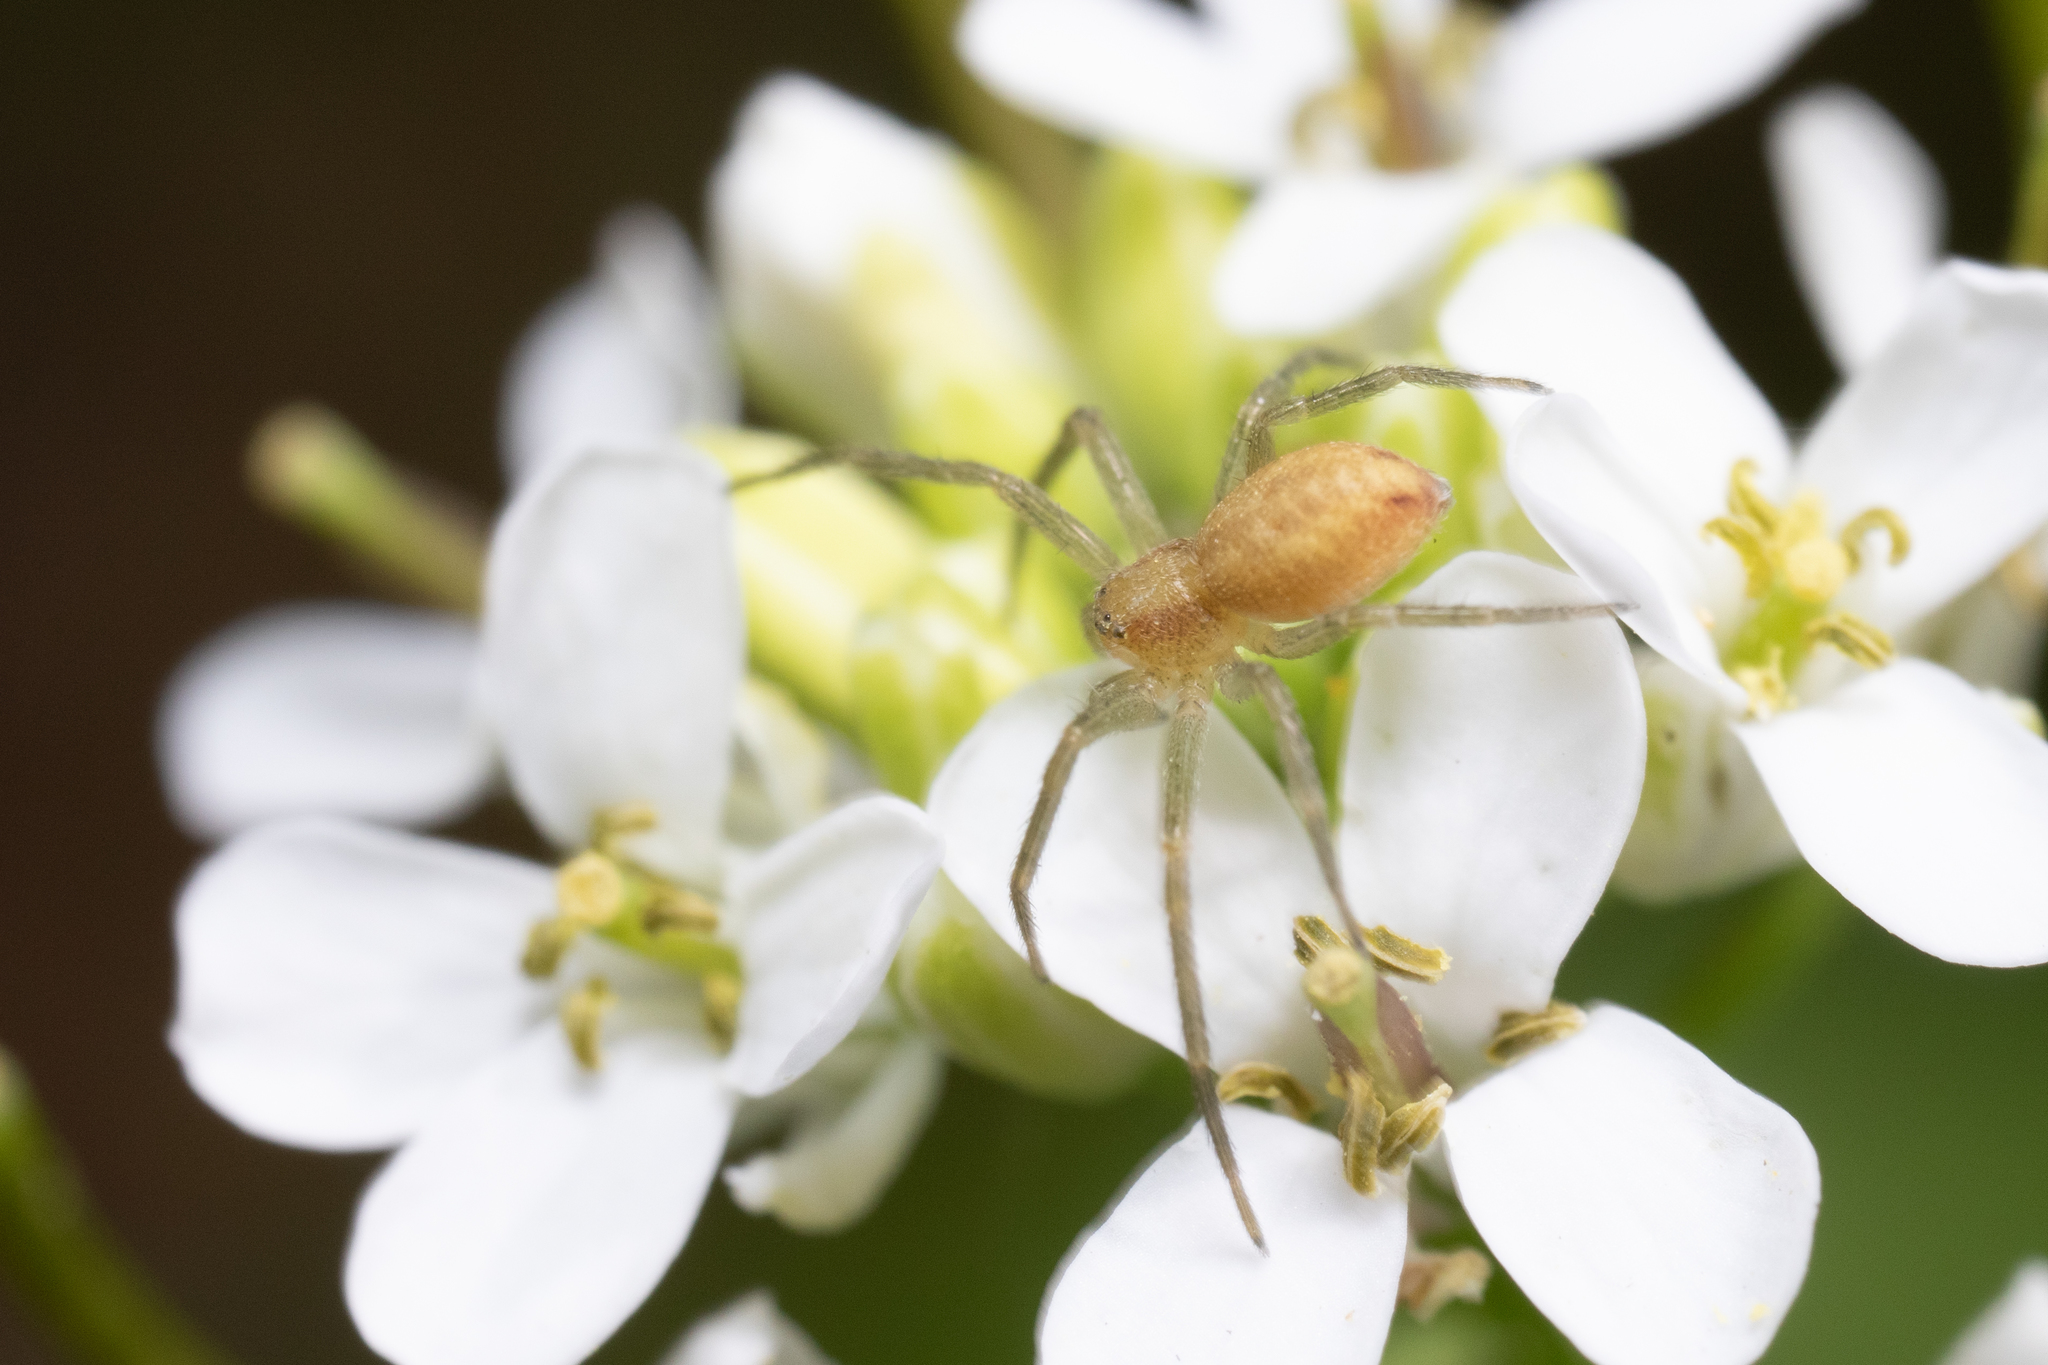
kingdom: Animalia
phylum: Arthropoda
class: Arachnida
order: Araneae
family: Philodromidae
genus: Philodromus
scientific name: Philodromus
